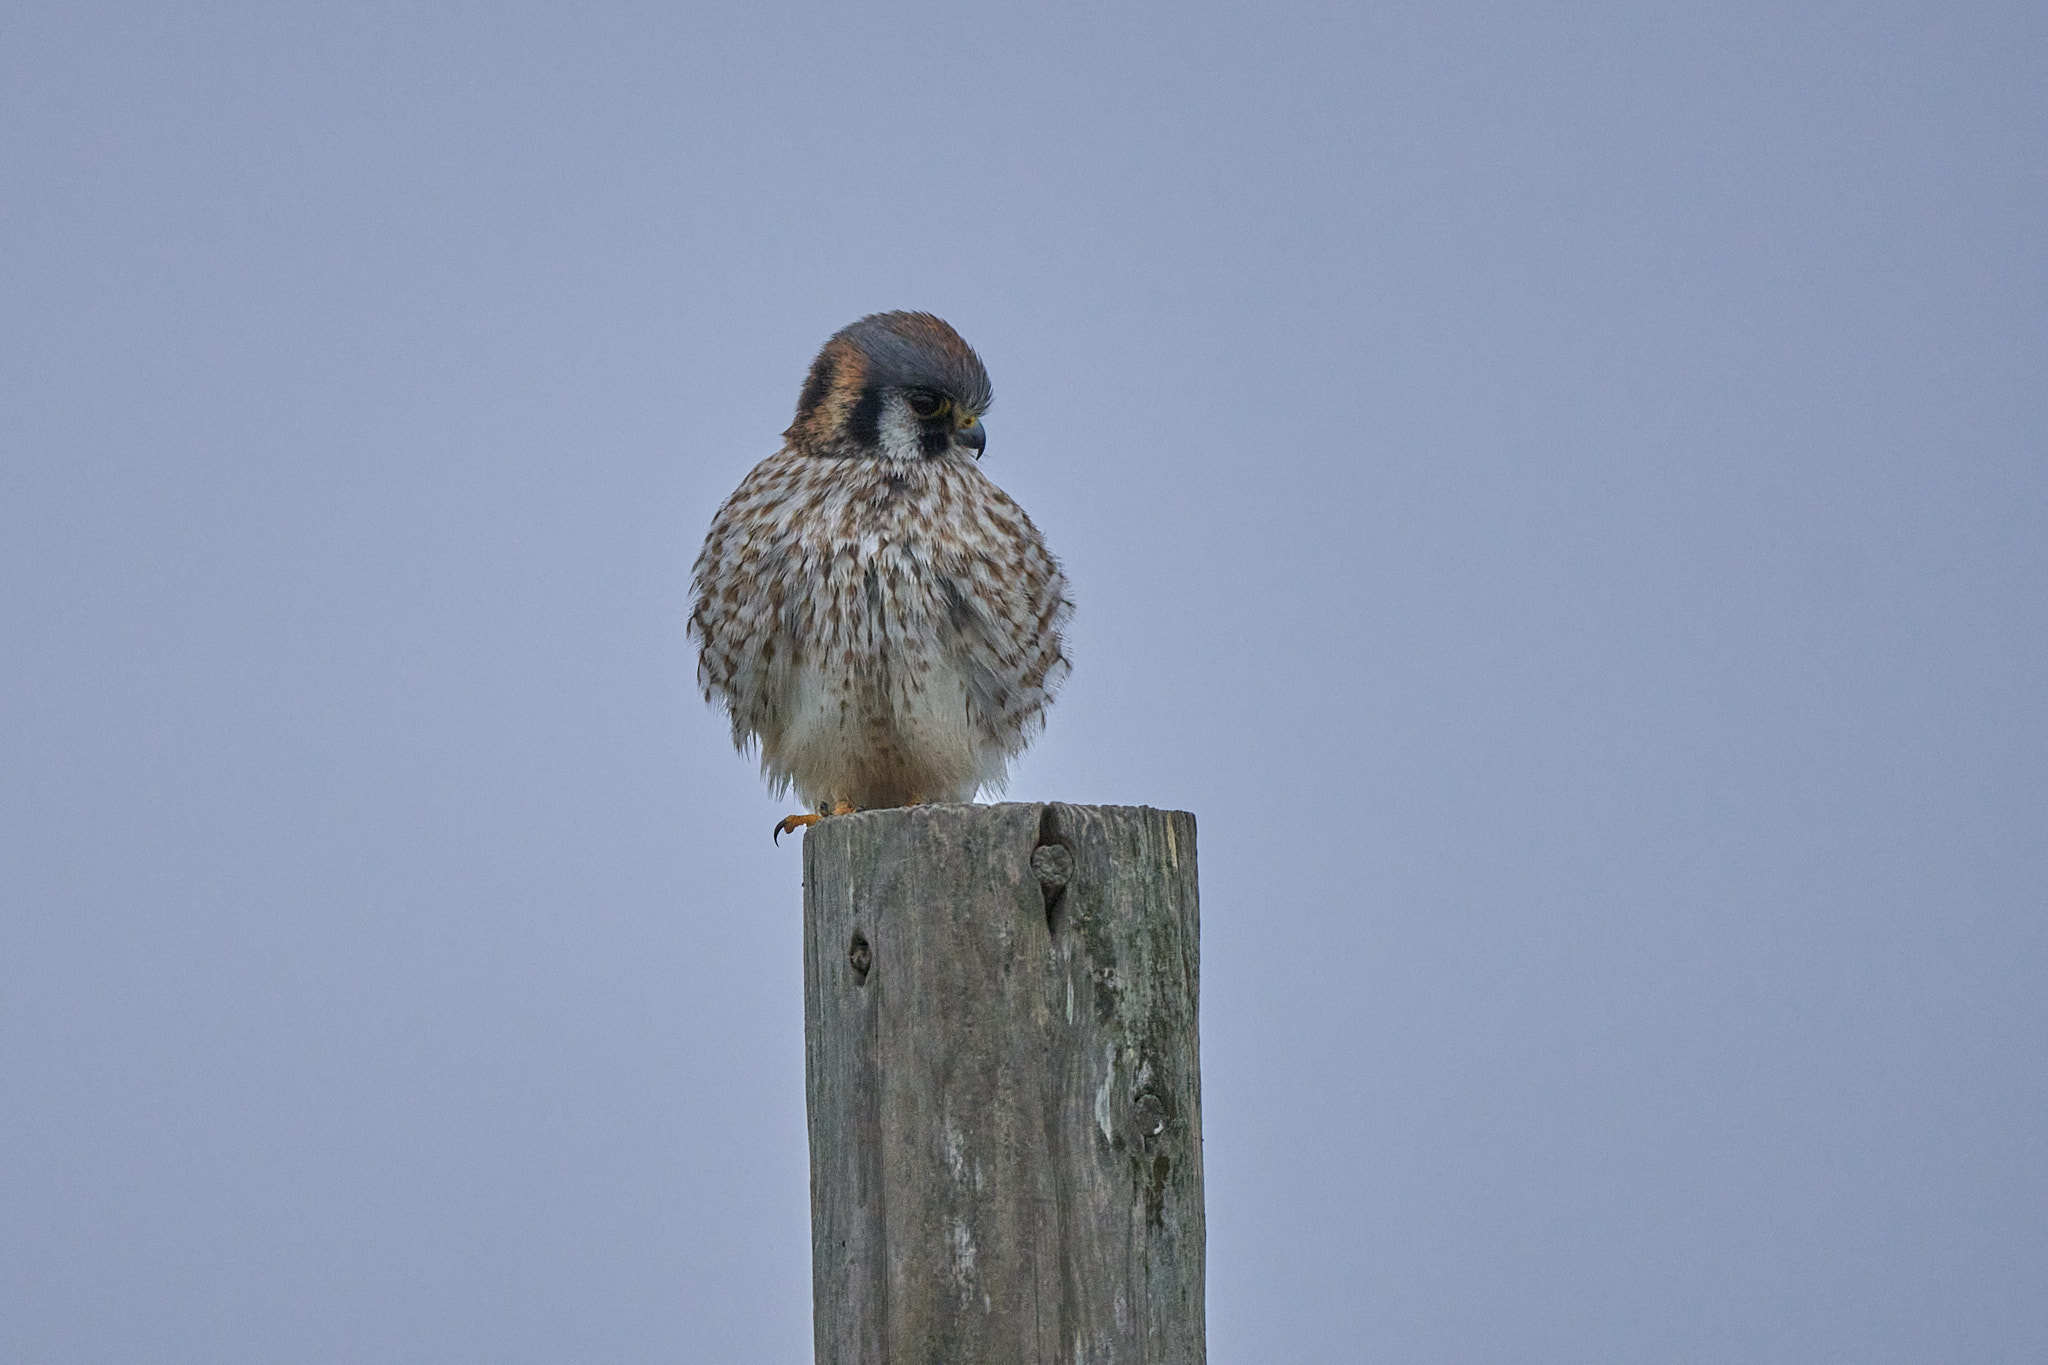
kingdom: Animalia
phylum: Chordata
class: Aves
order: Falconiformes
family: Falconidae
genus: Falco
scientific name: Falco sparverius
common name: American kestrel
